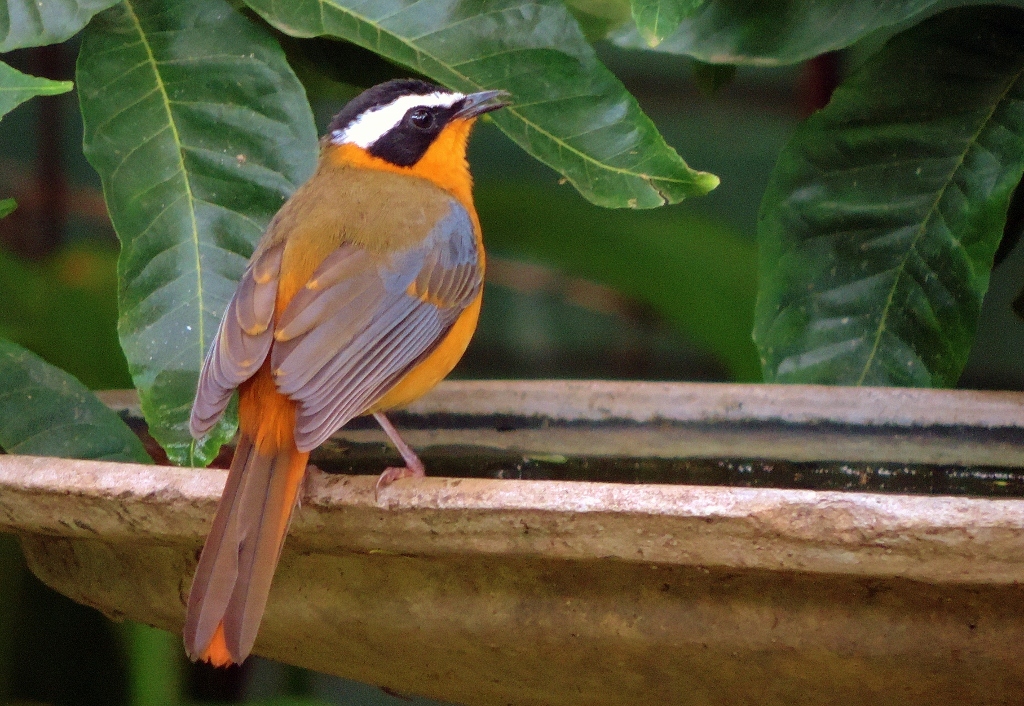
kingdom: Animalia
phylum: Chordata
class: Aves
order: Passeriformes
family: Muscicapidae
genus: Cossypha
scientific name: Cossypha heuglini
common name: White-browed robin-chat
